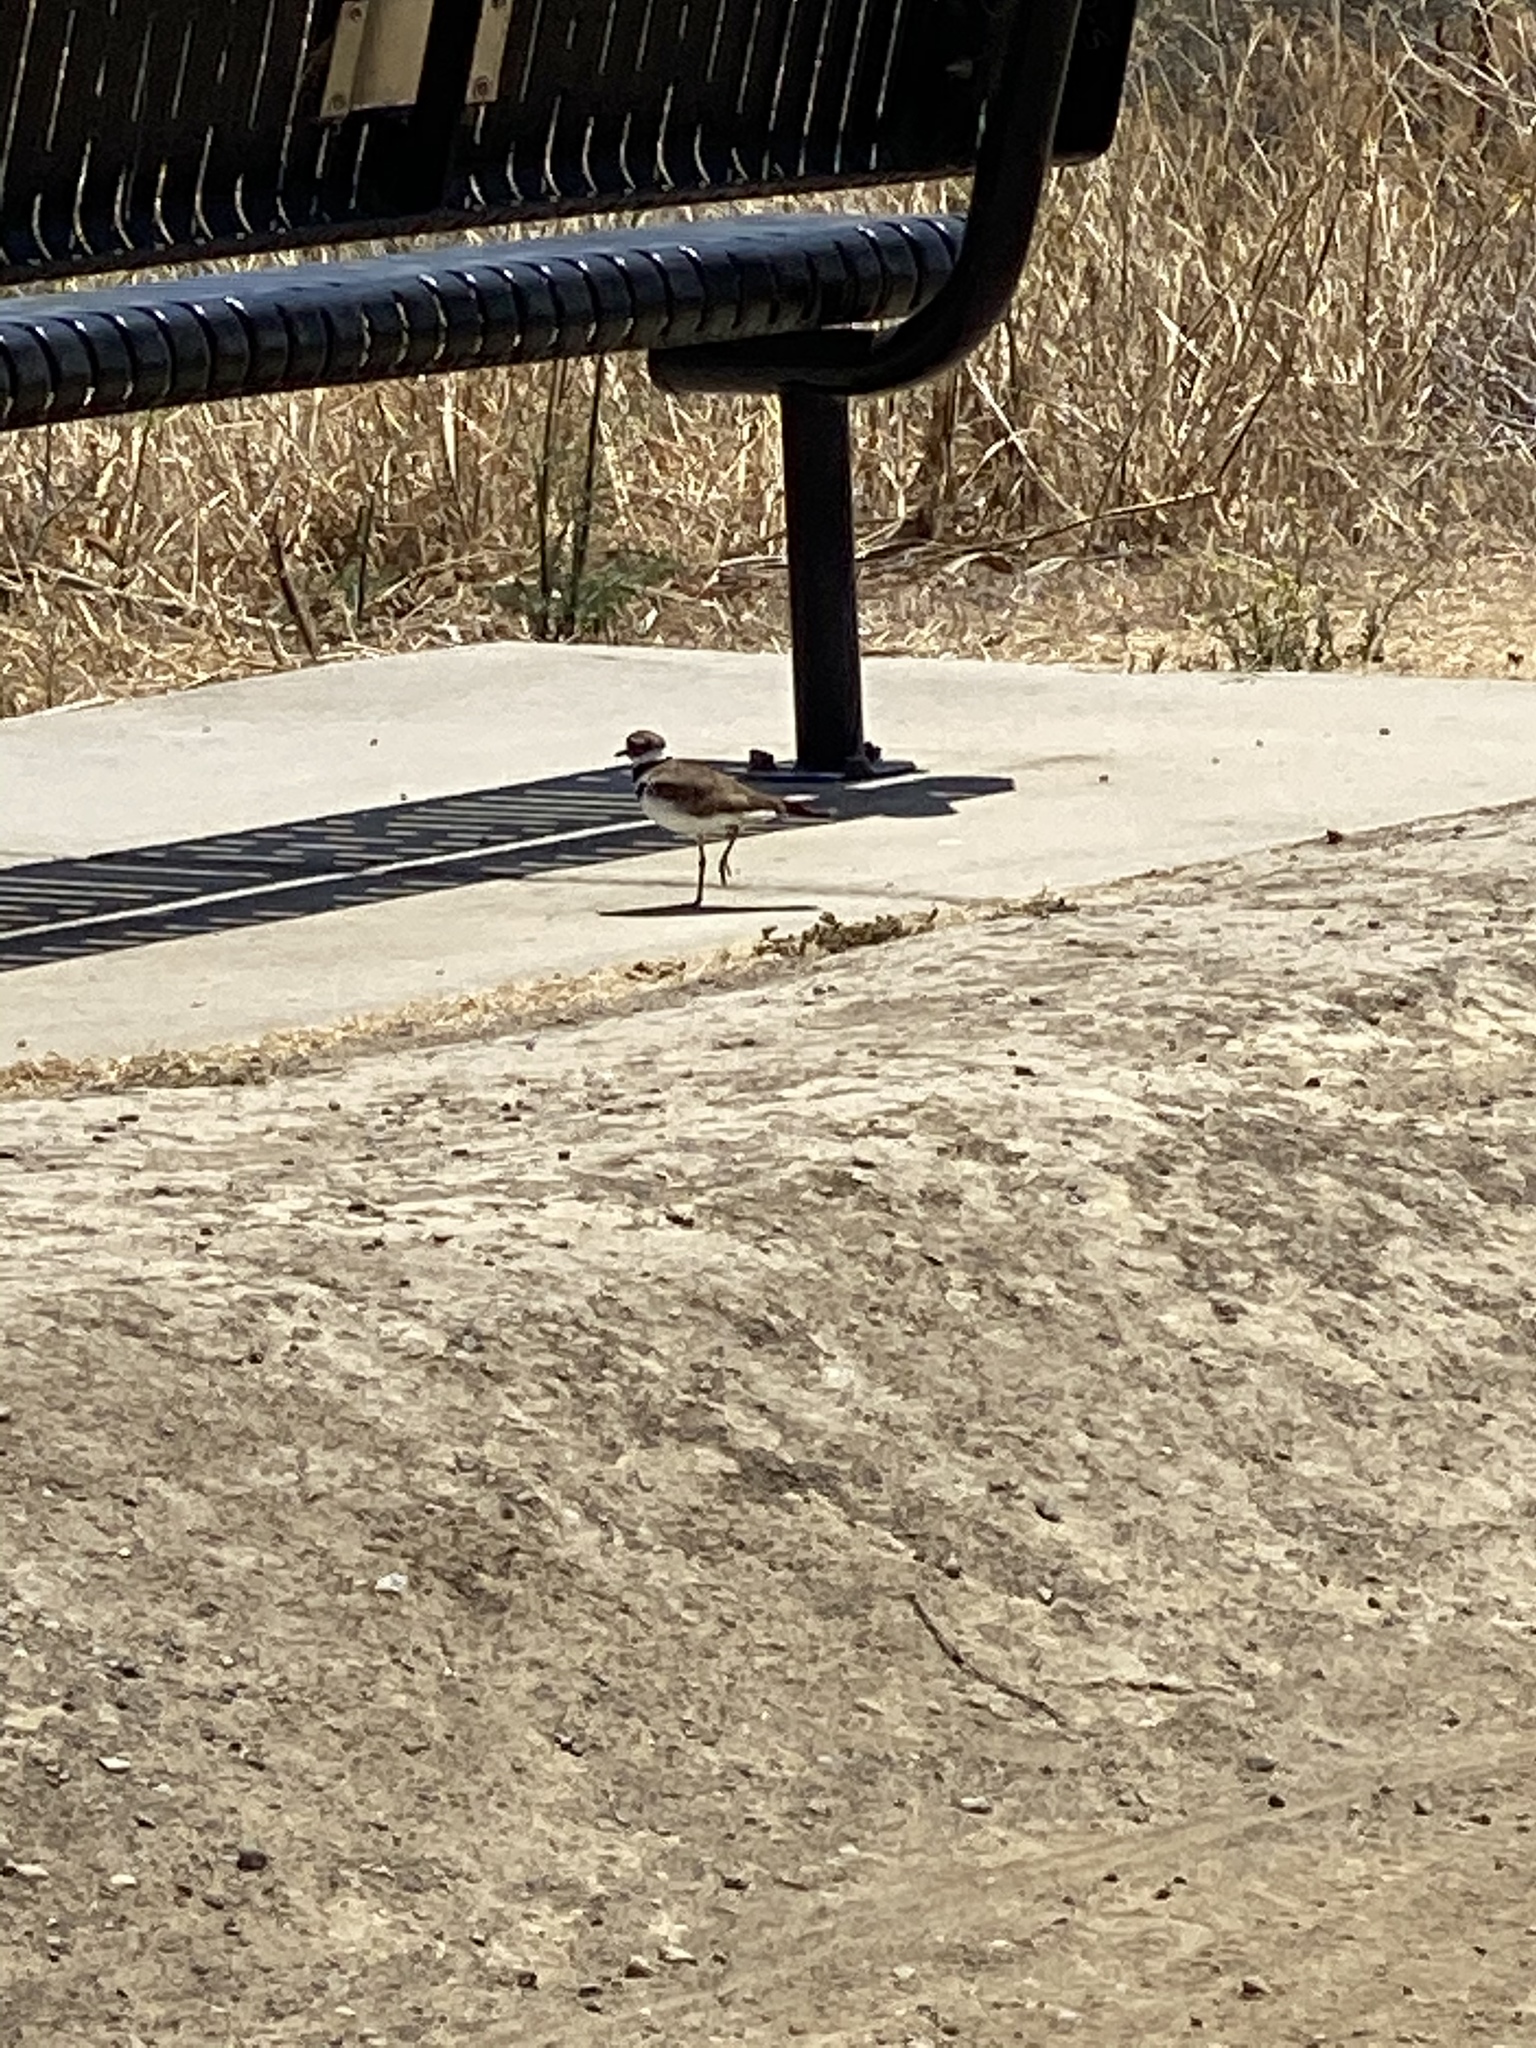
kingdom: Animalia
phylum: Chordata
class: Aves
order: Charadriiformes
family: Charadriidae
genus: Charadrius
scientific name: Charadrius vociferus
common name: Killdeer
